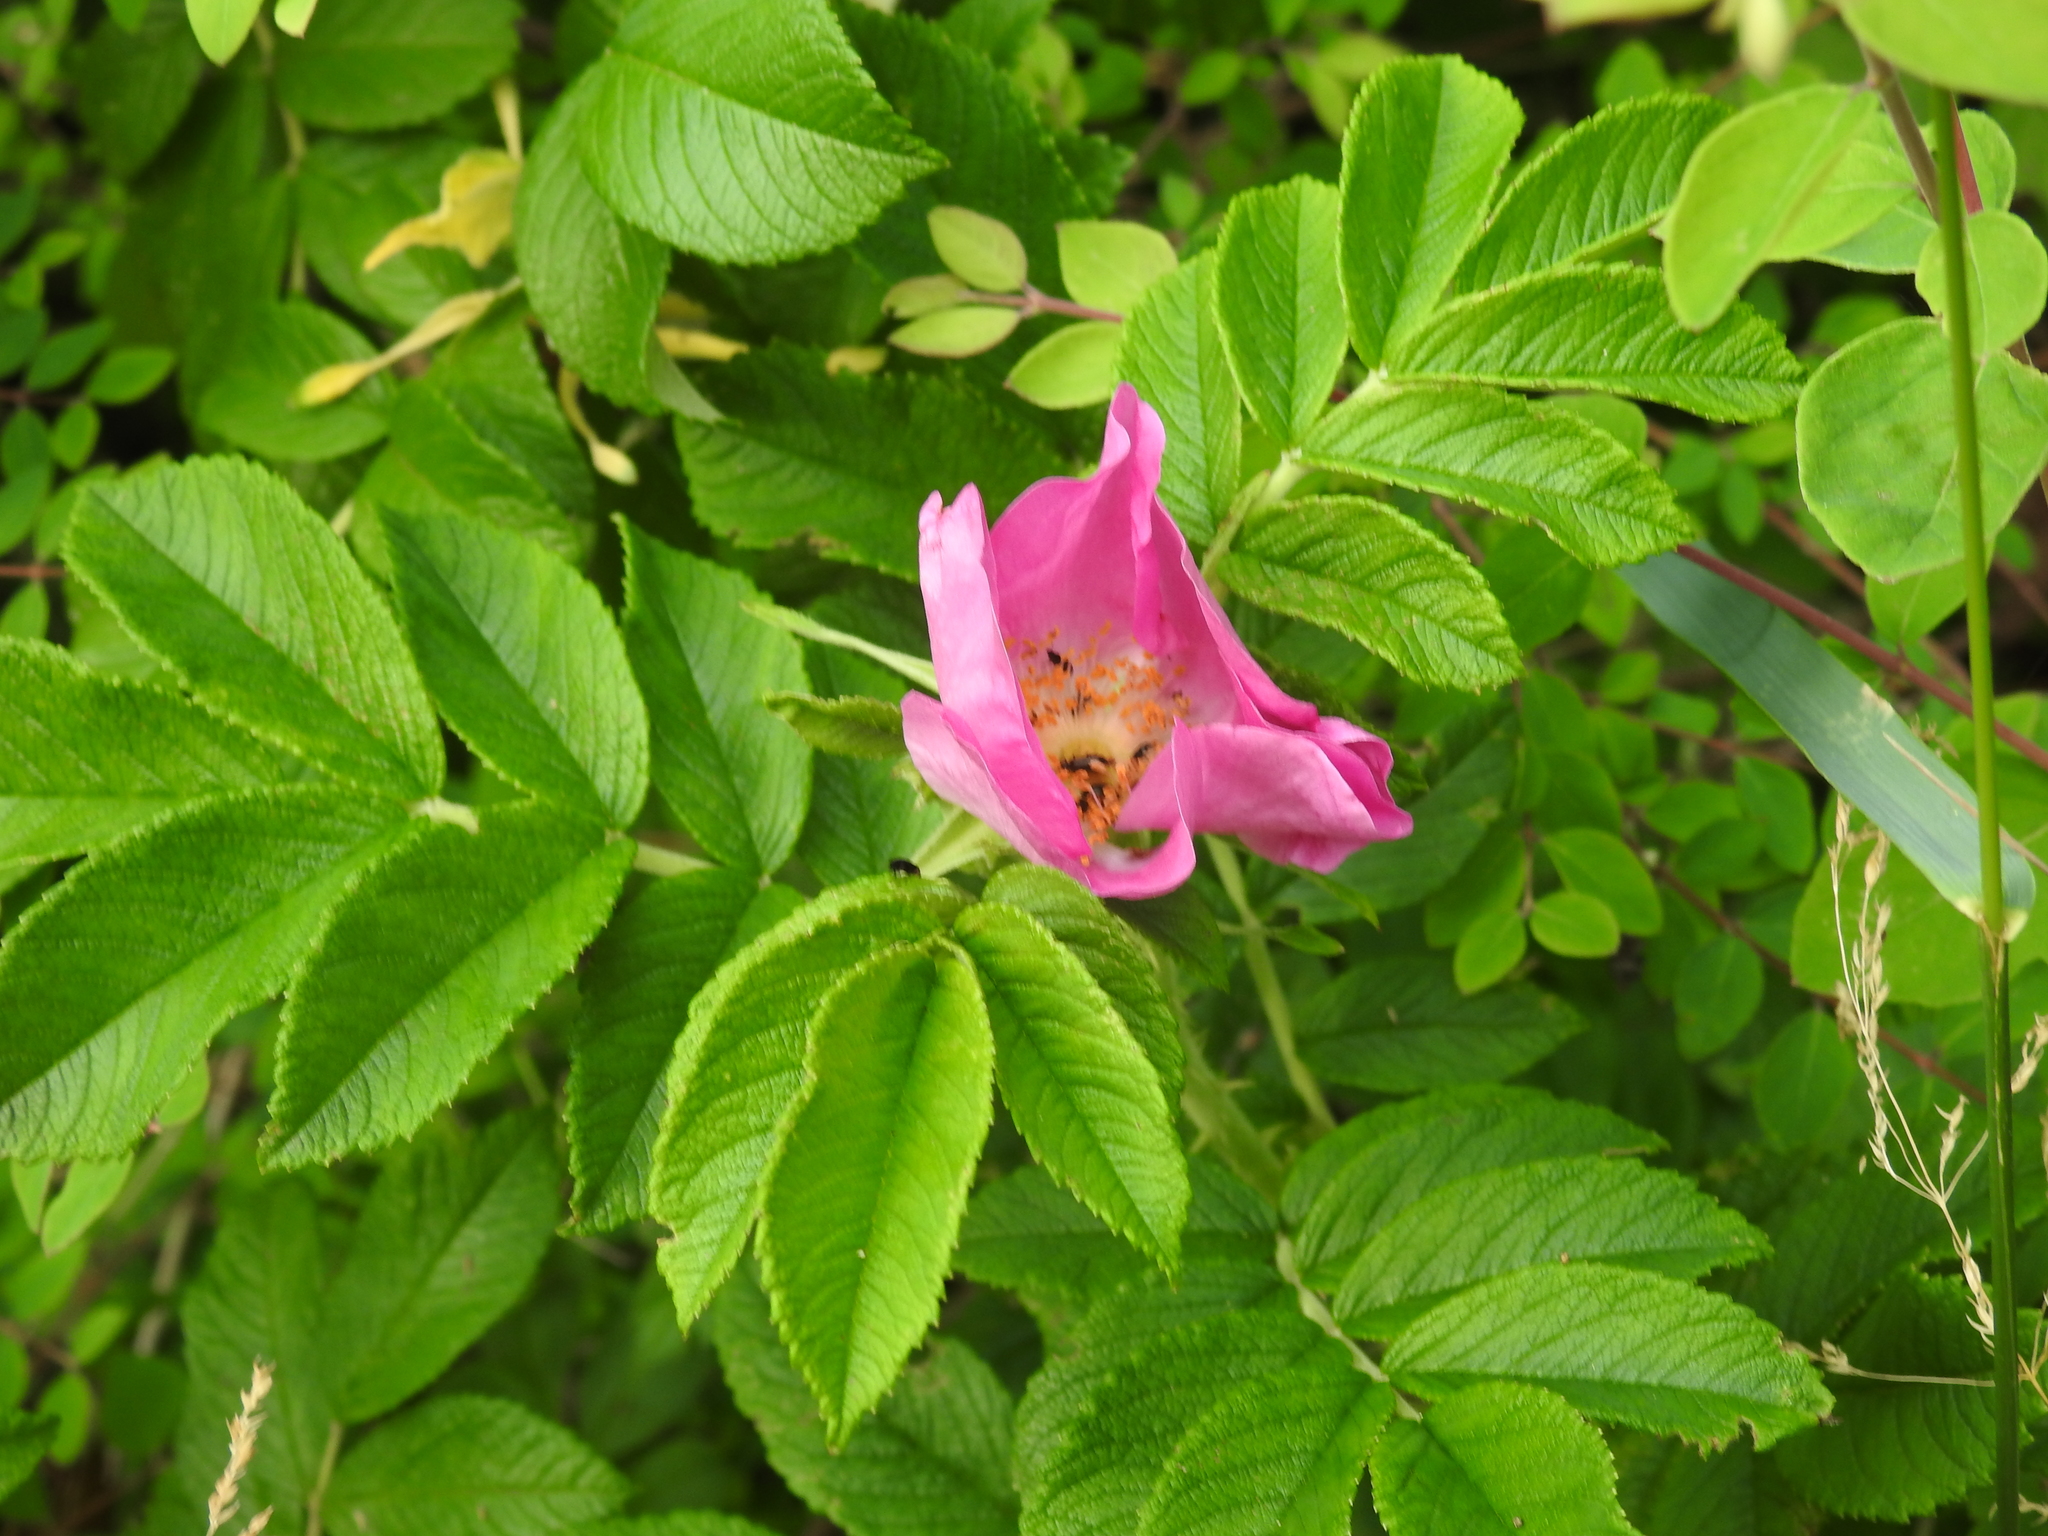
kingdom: Plantae
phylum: Tracheophyta
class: Magnoliopsida
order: Rosales
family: Rosaceae
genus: Rosa
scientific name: Rosa rugosa
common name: Japanese rose
